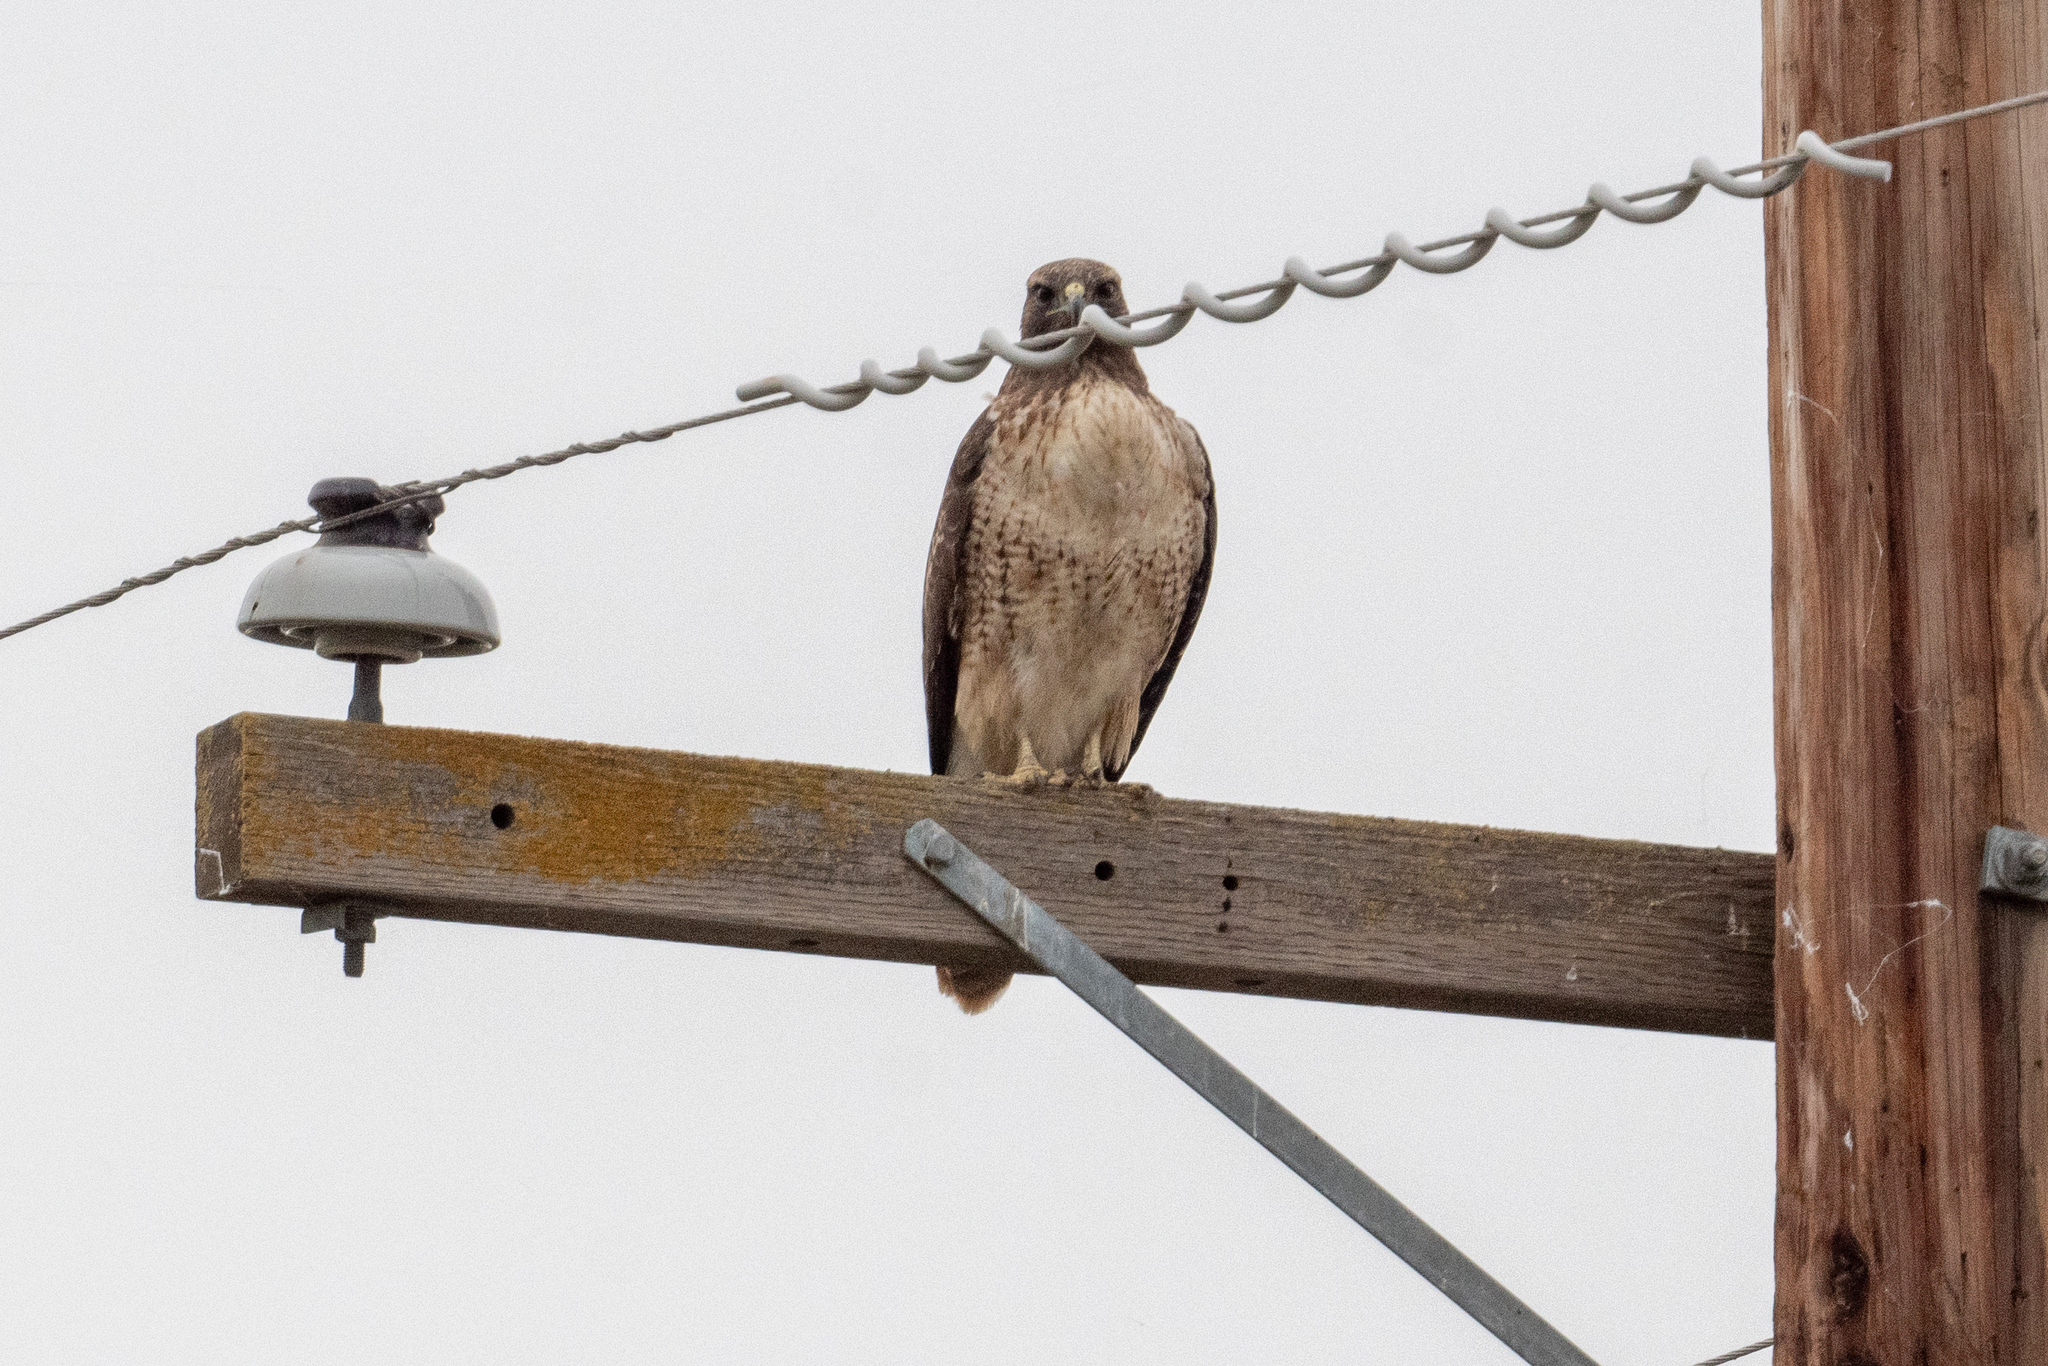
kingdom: Animalia
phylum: Chordata
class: Aves
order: Accipitriformes
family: Accipitridae
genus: Buteo
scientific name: Buteo jamaicensis
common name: Red-tailed hawk
